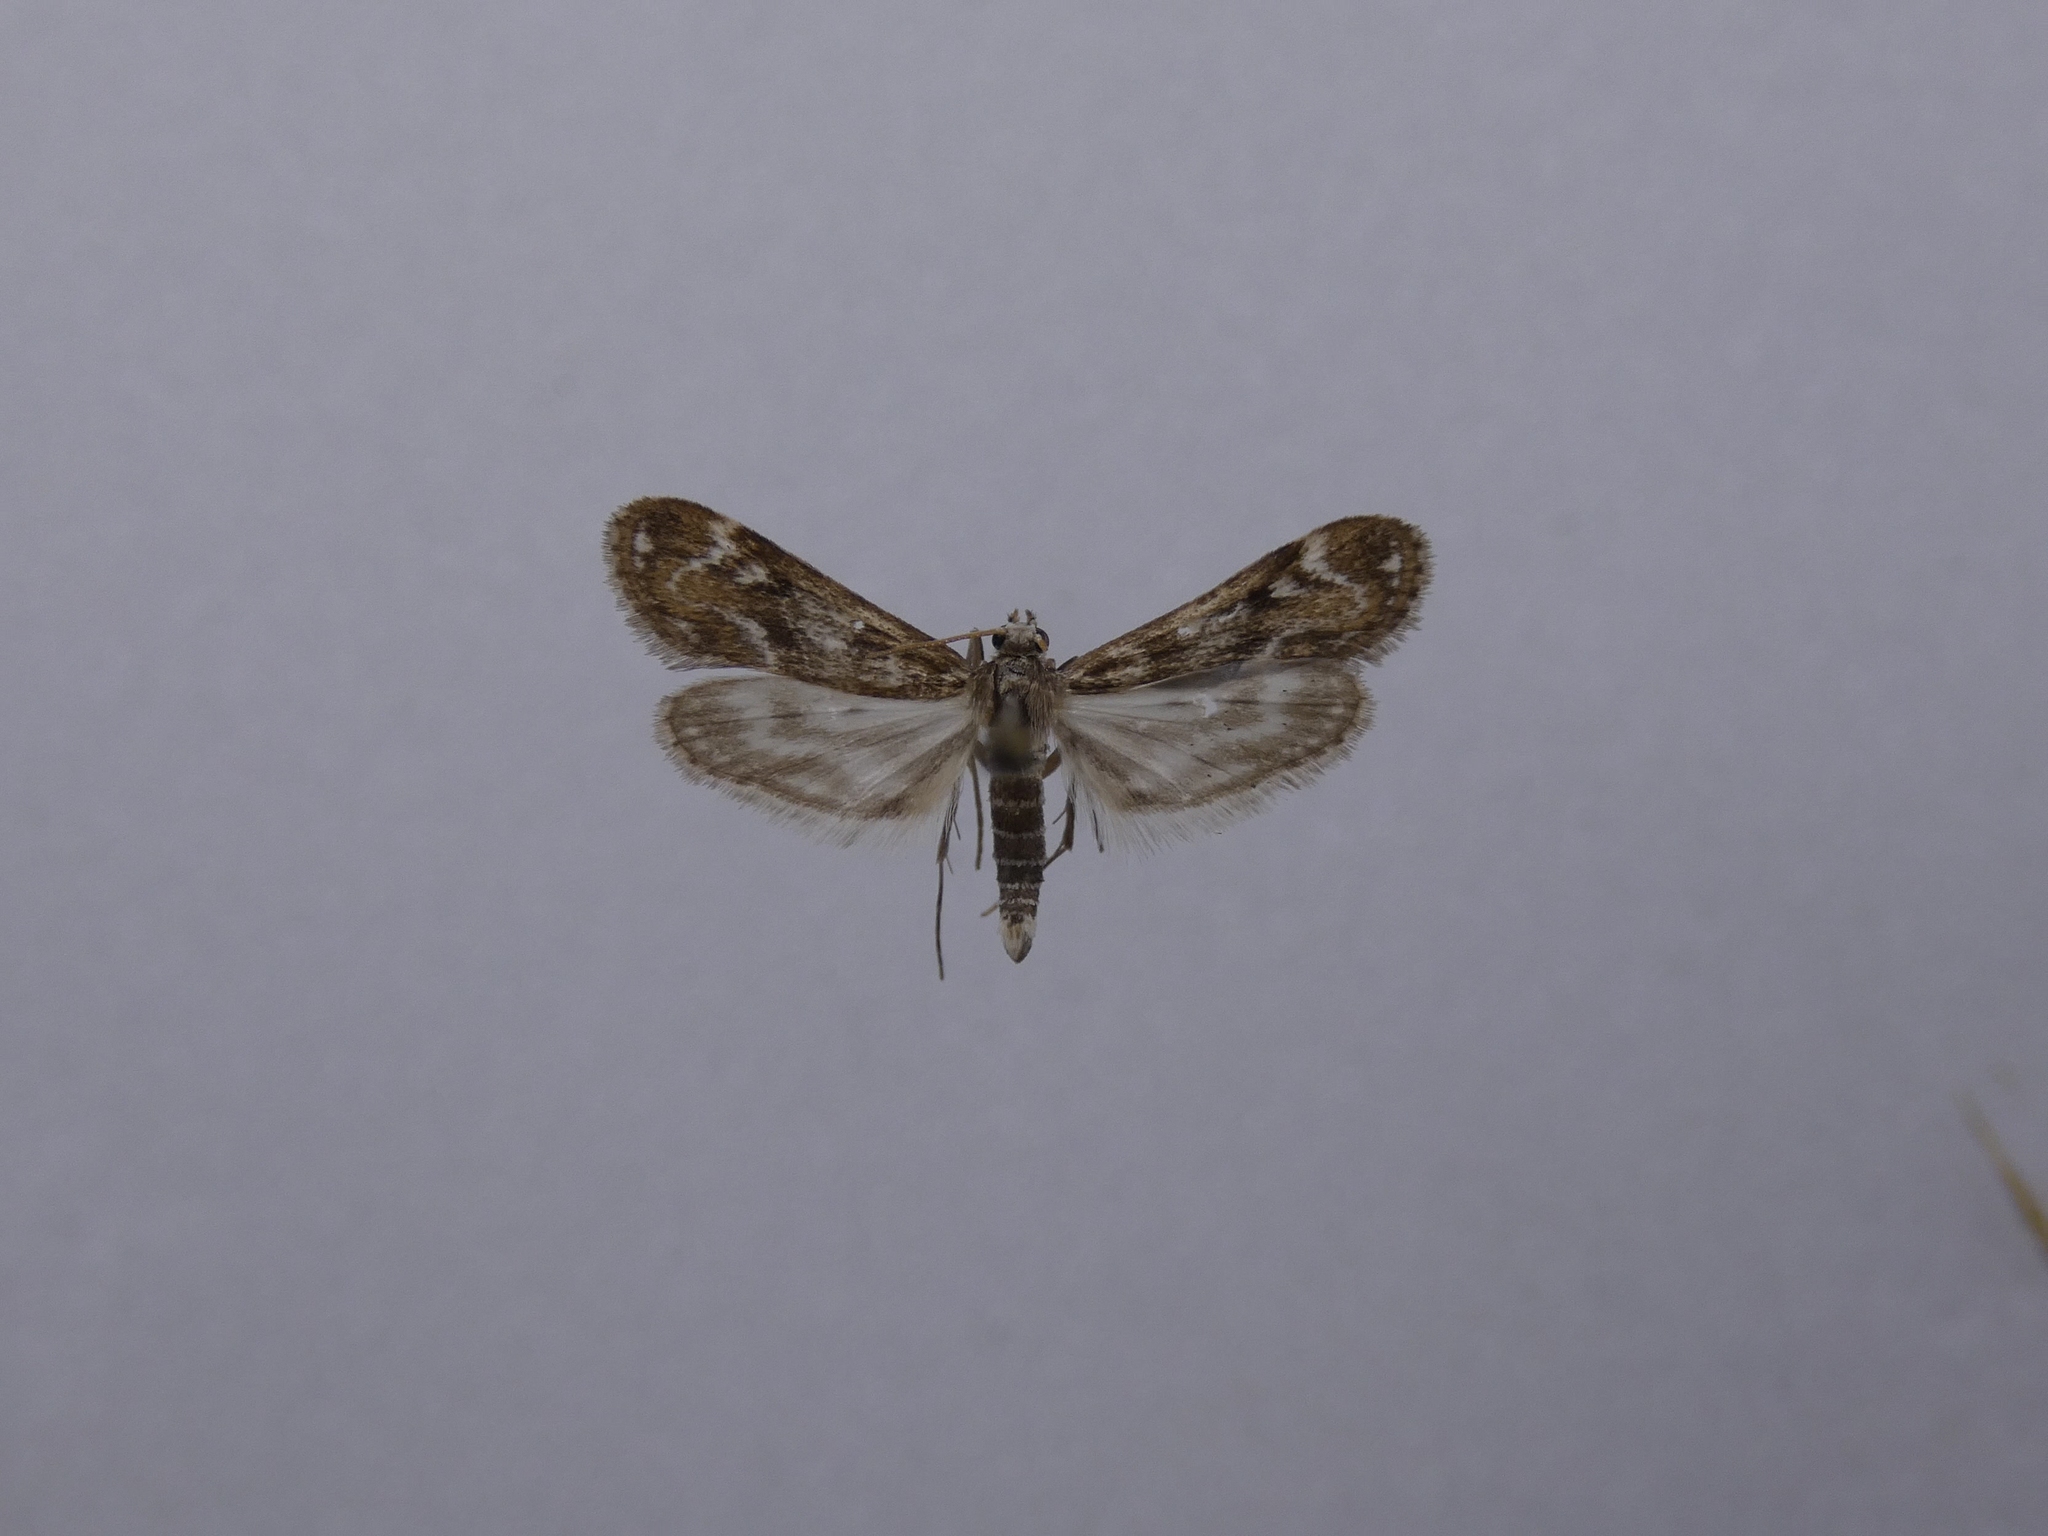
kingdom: Animalia
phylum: Arthropoda
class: Insecta
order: Lepidoptera
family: Crambidae
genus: Hygraula
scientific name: Hygraula nitens
